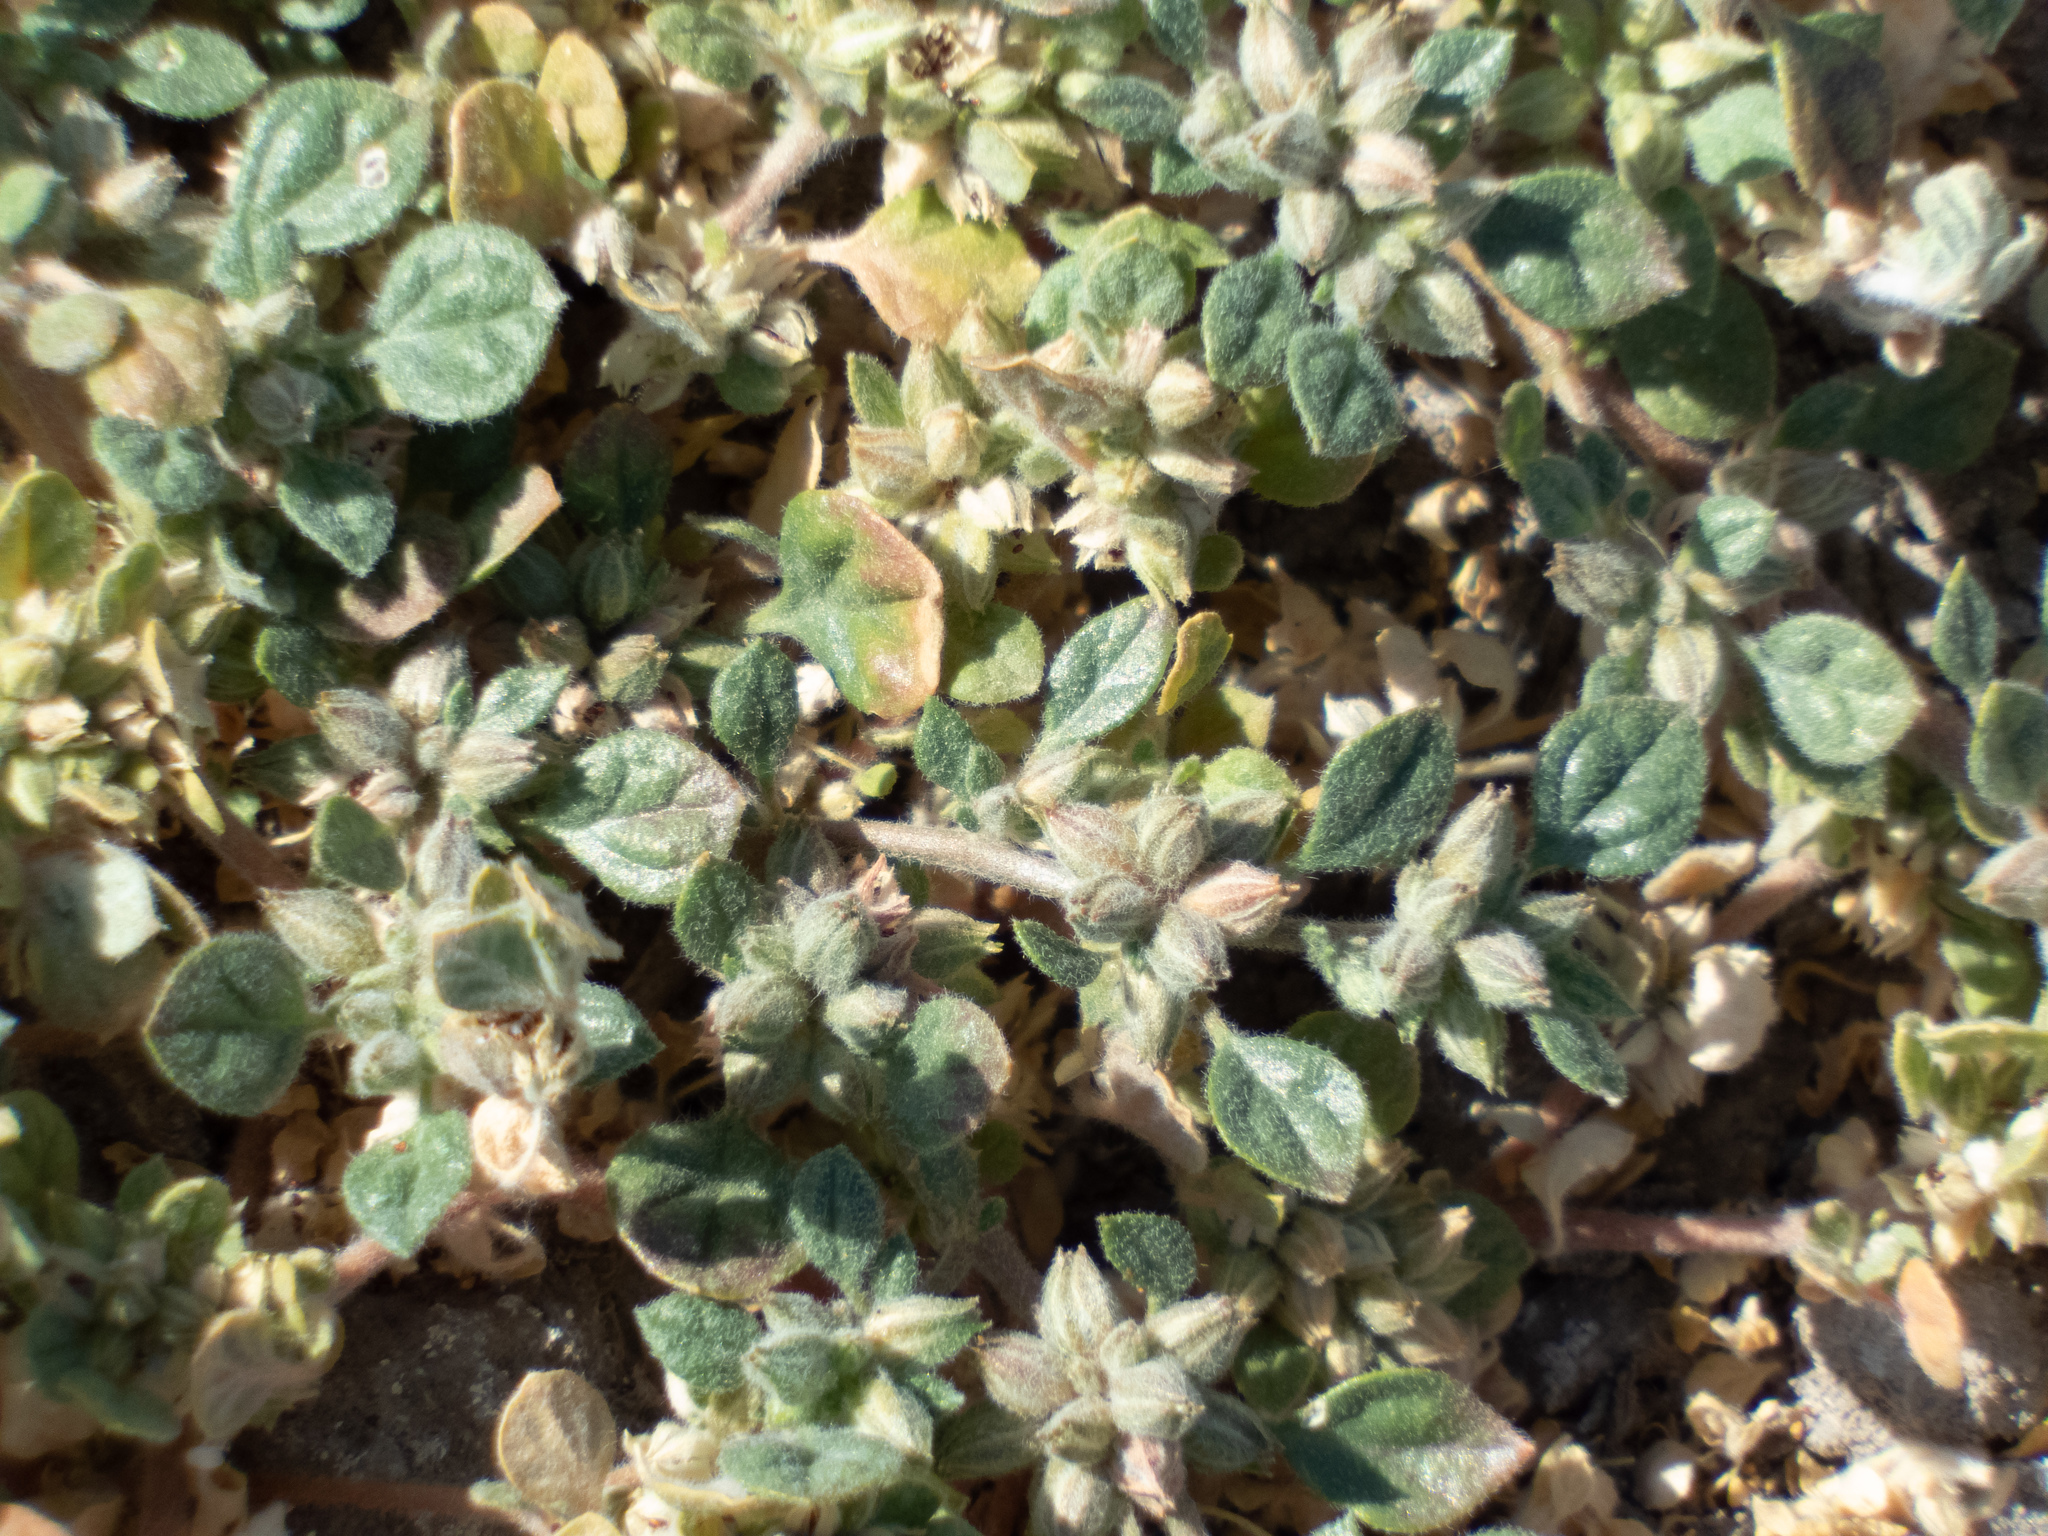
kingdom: Plantae
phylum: Tracheophyta
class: Magnoliopsida
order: Caryophyllales
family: Molluginaceae
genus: Glinus
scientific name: Glinus lotoides
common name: Lotus sweetjuice
